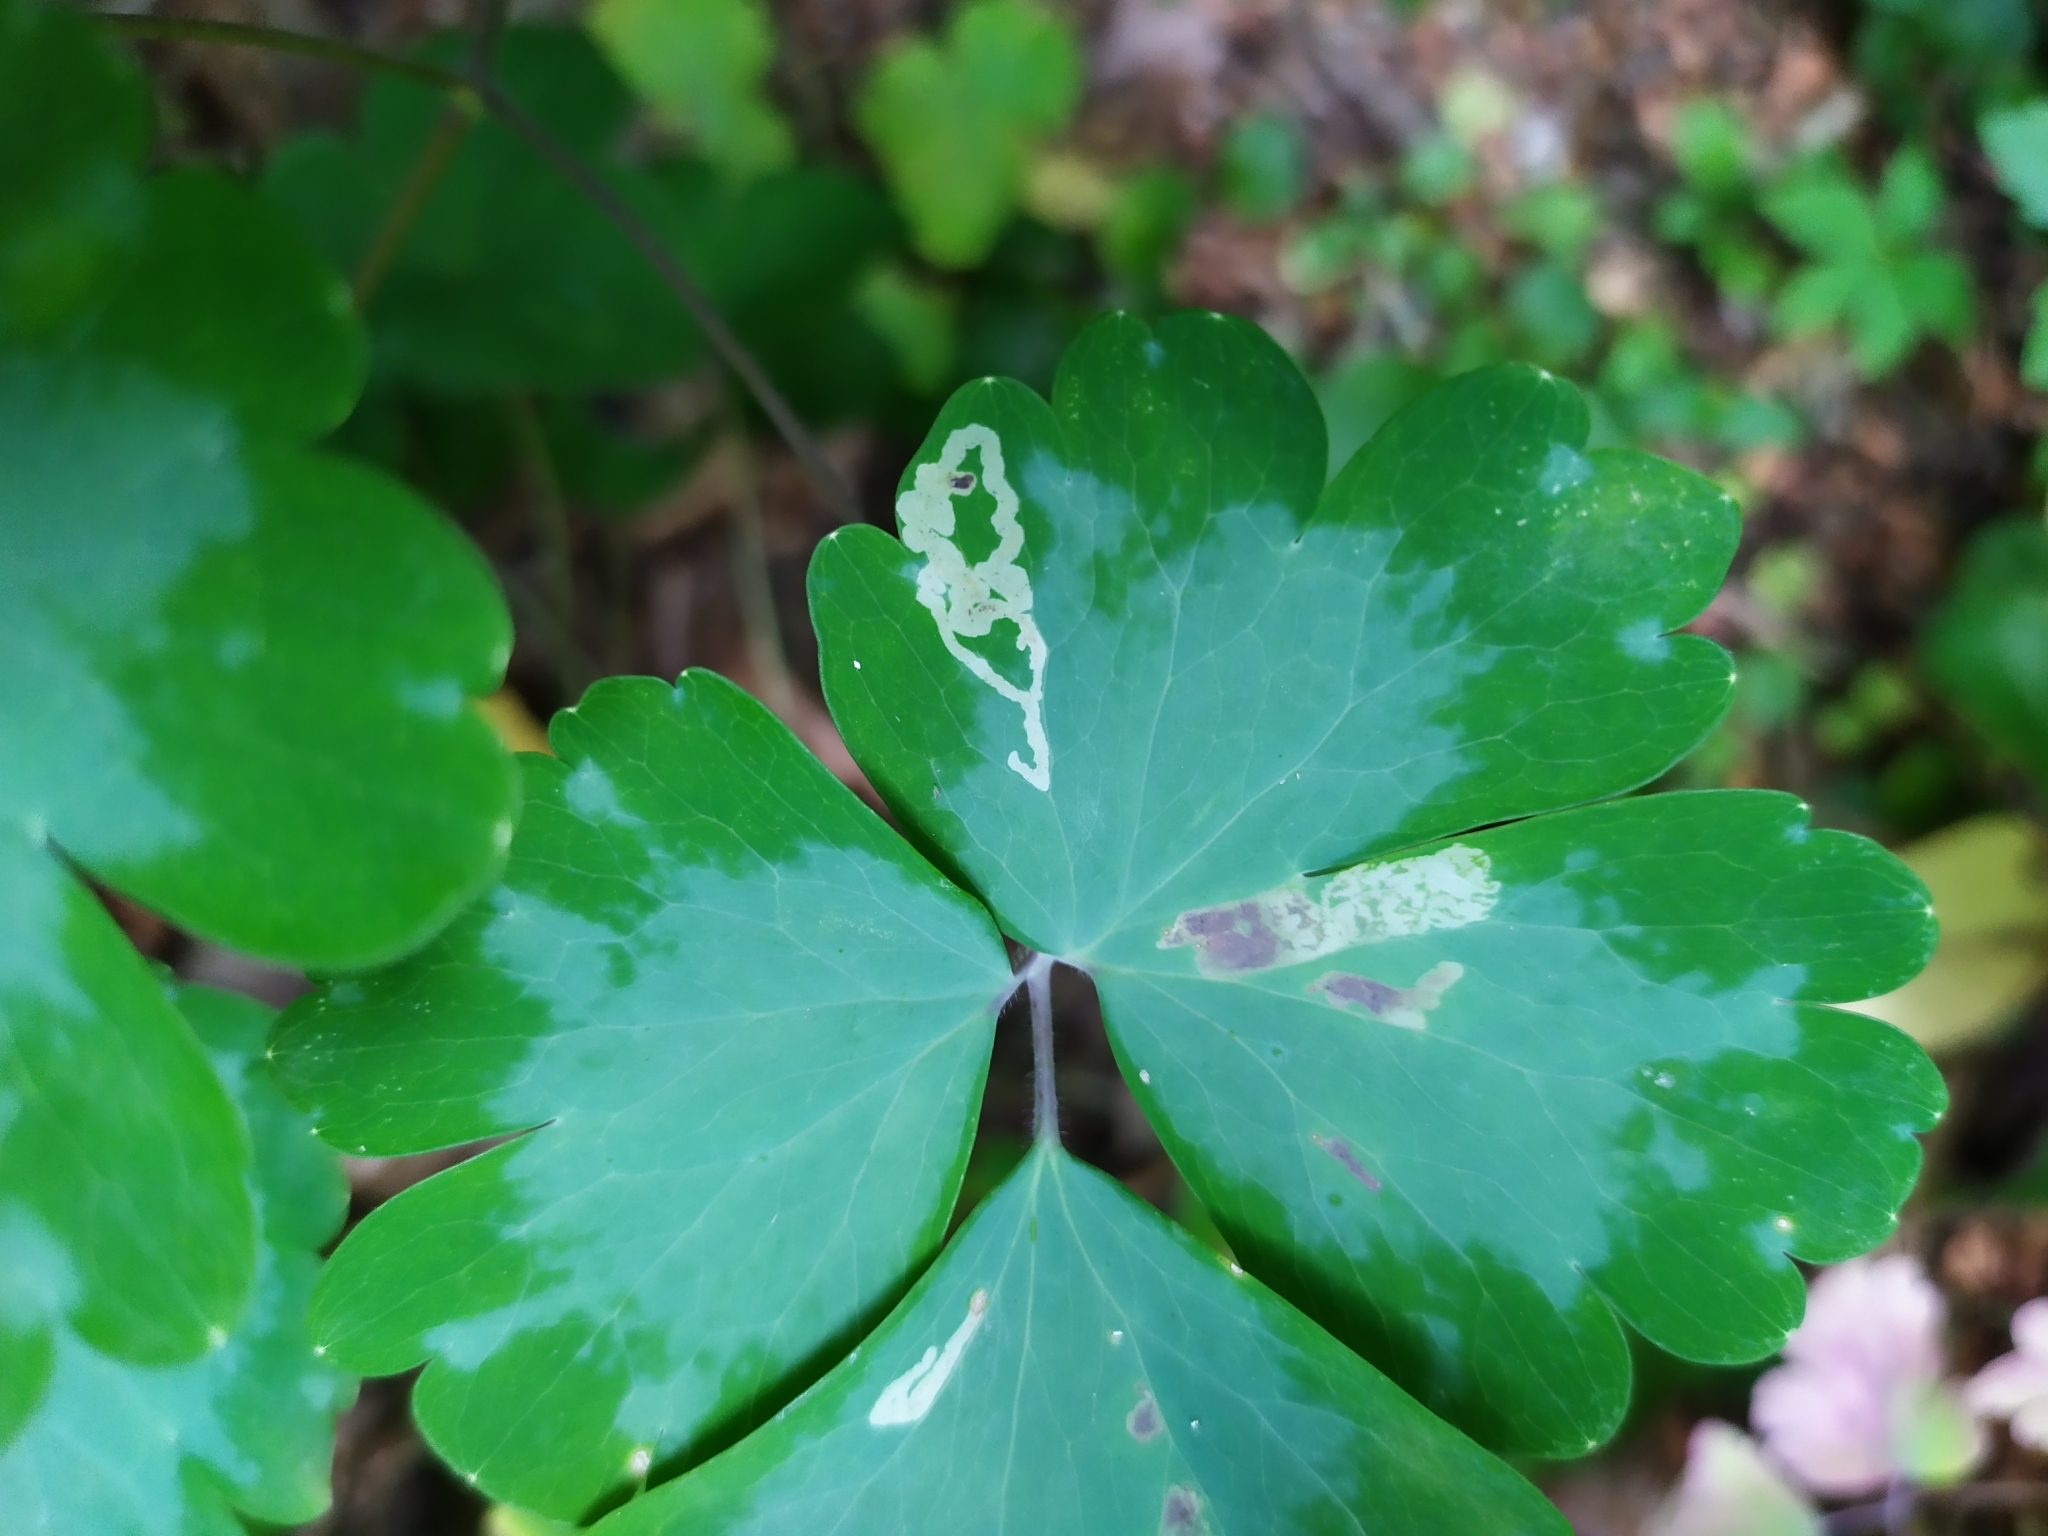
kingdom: Plantae
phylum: Tracheophyta
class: Magnoliopsida
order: Ranunculales
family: Ranunculaceae
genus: Aquilegia
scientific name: Aquilegia vulgaris
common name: Columbine
